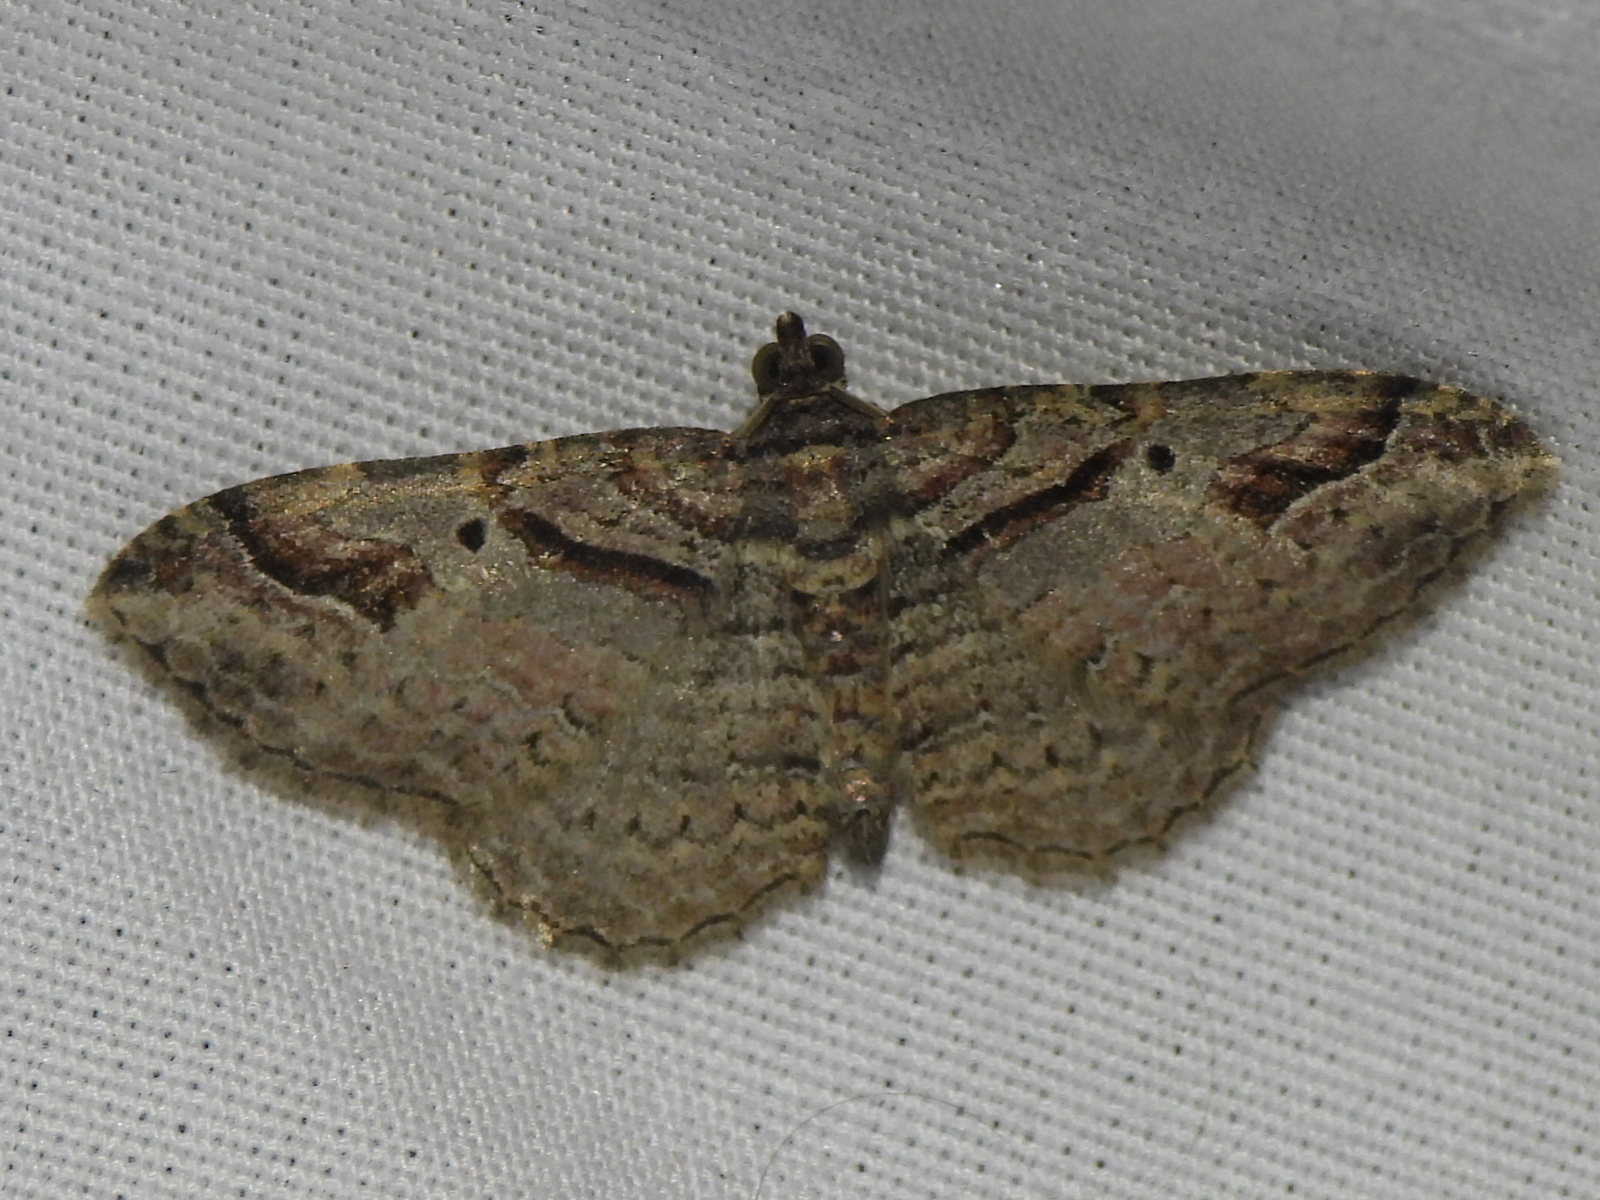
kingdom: Animalia
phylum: Arthropoda
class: Insecta
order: Lepidoptera
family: Geometridae
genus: Costaconvexa
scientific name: Costaconvexa centrostrigaria
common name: Bent-line carpet
